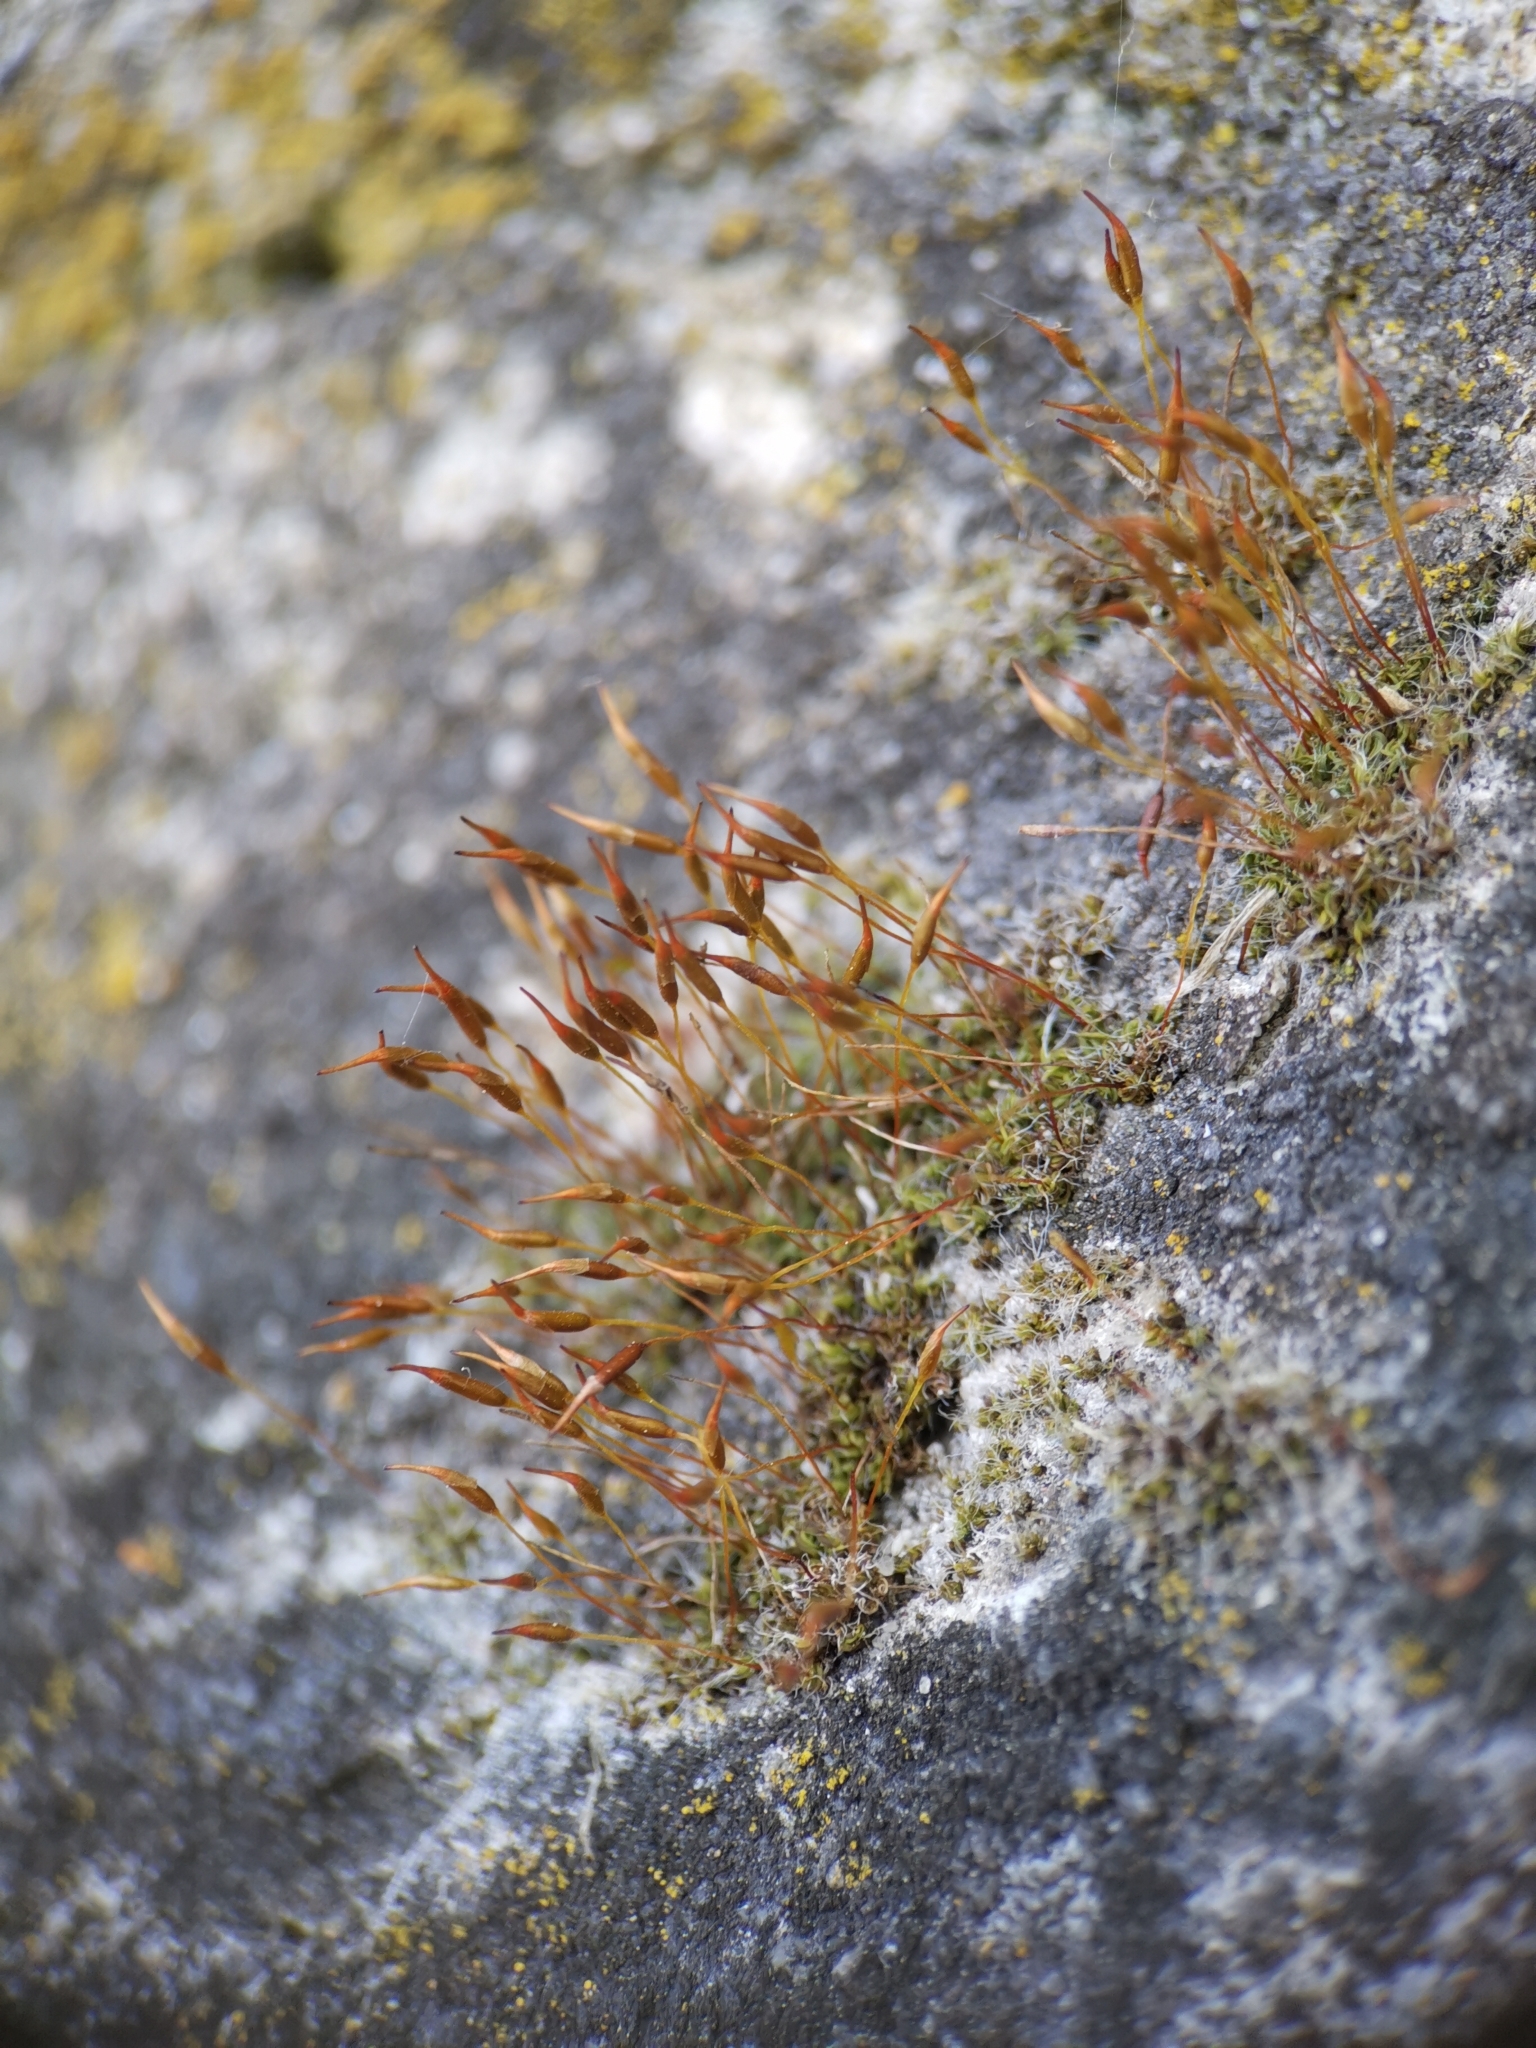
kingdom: Plantae
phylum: Bryophyta
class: Bryopsida
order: Pottiales
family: Pottiaceae
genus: Tortula
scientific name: Tortula muralis
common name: Wall screw-moss
